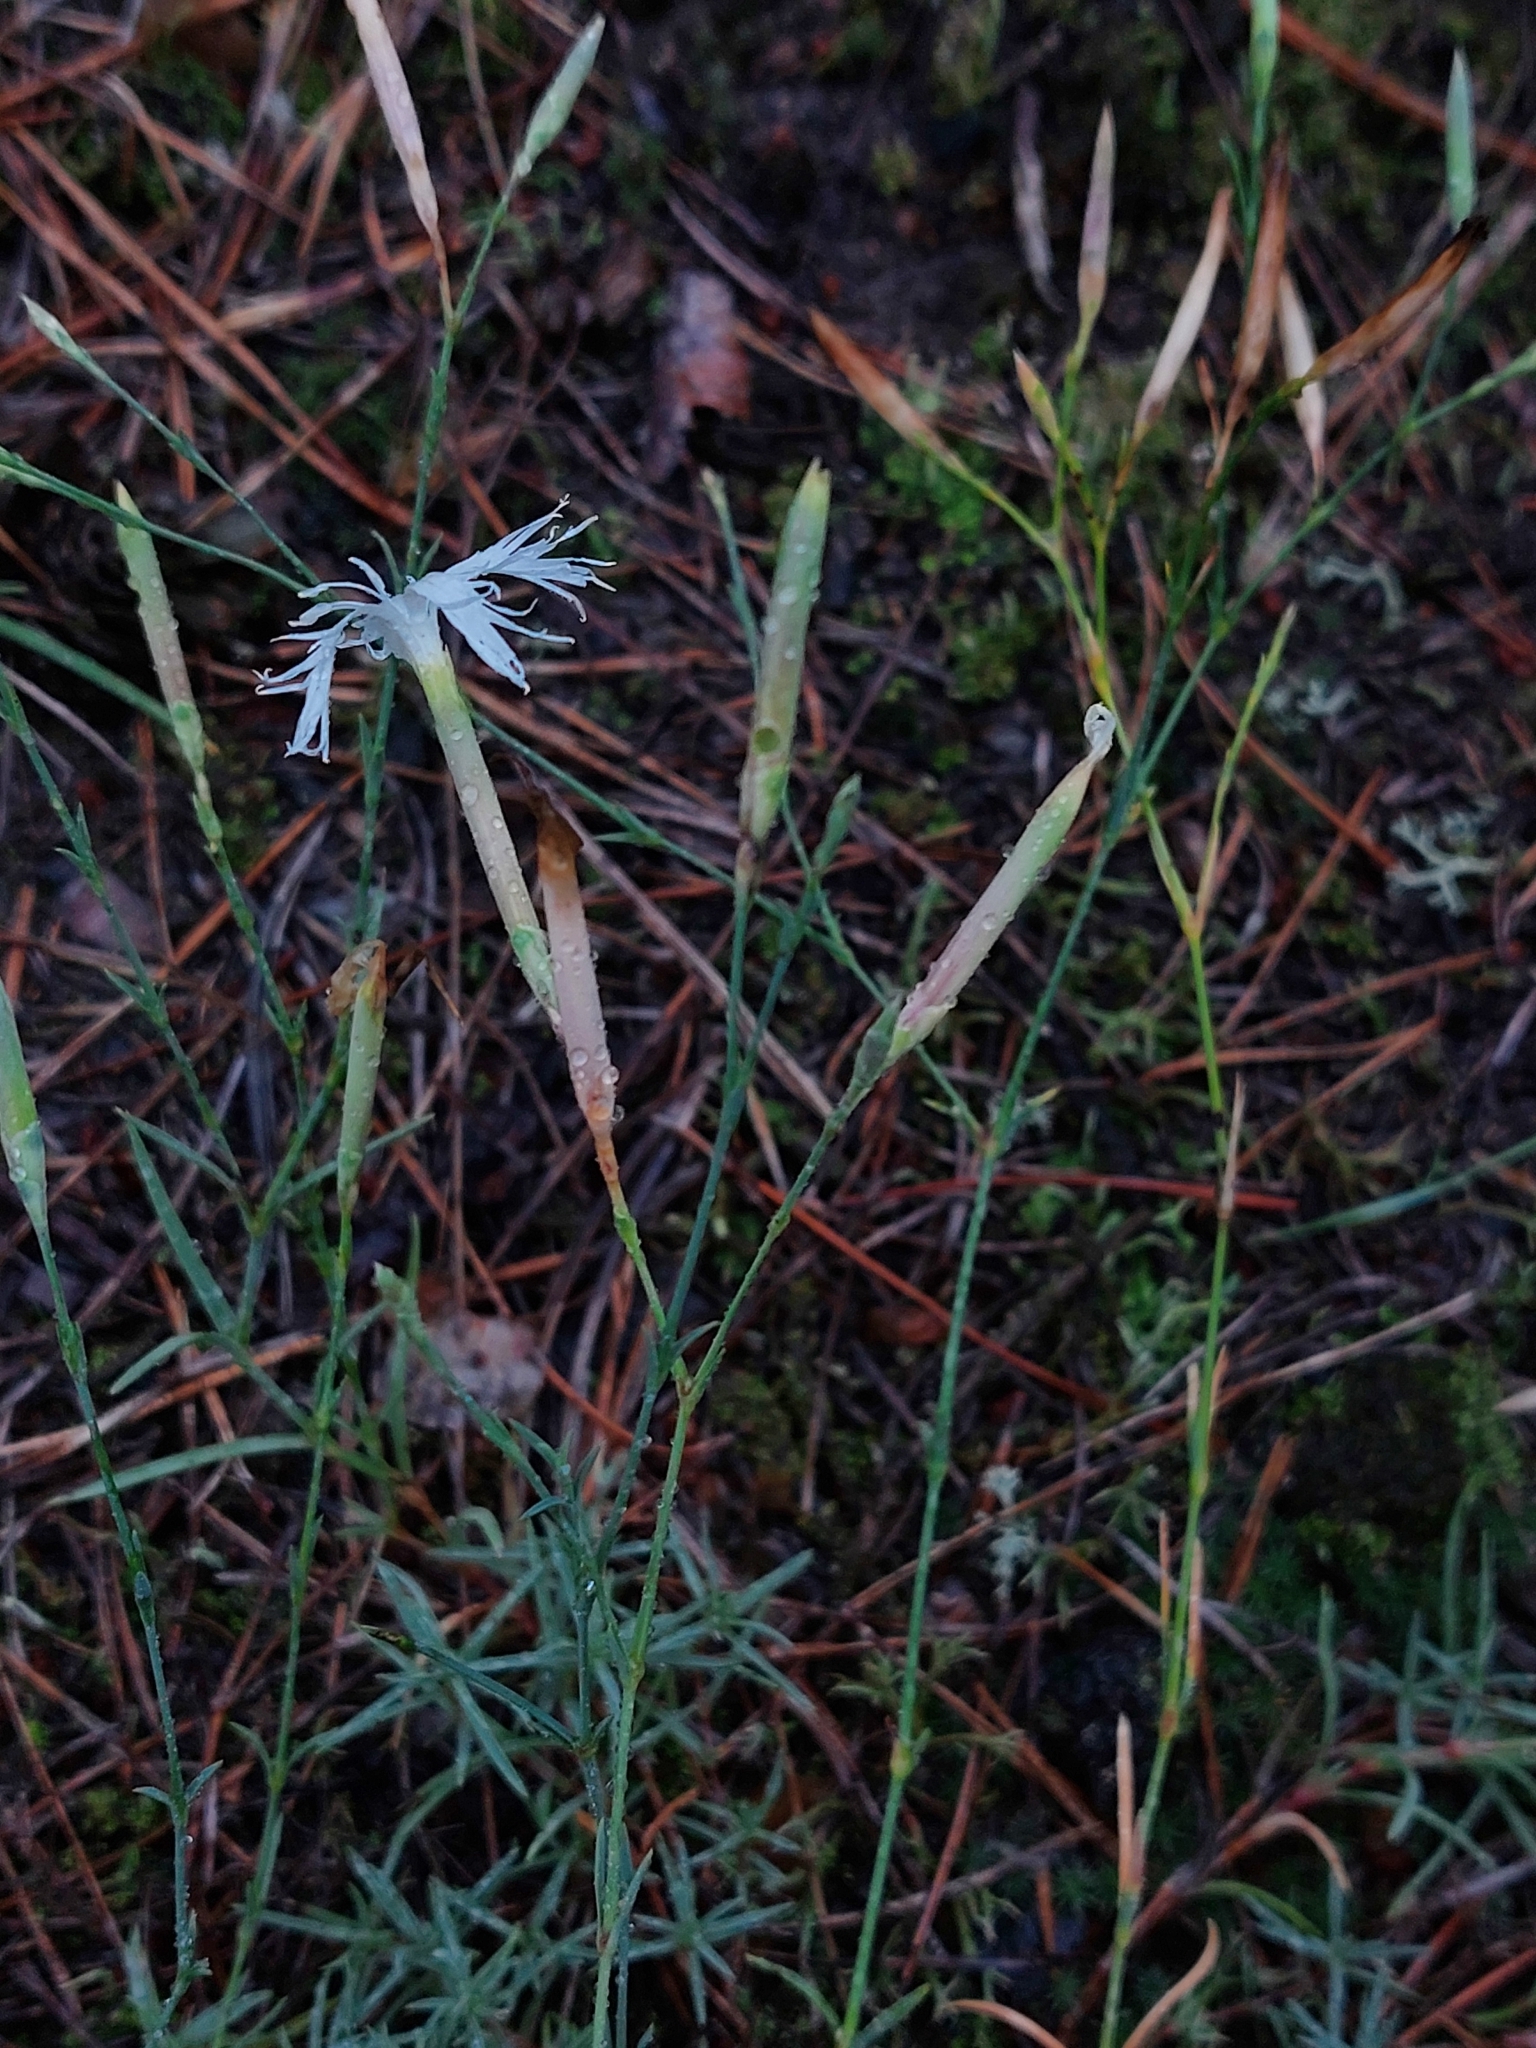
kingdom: Plantae
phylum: Tracheophyta
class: Magnoliopsida
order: Caryophyllales
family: Caryophyllaceae
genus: Dianthus
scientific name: Dianthus arenarius
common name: Stone pink
